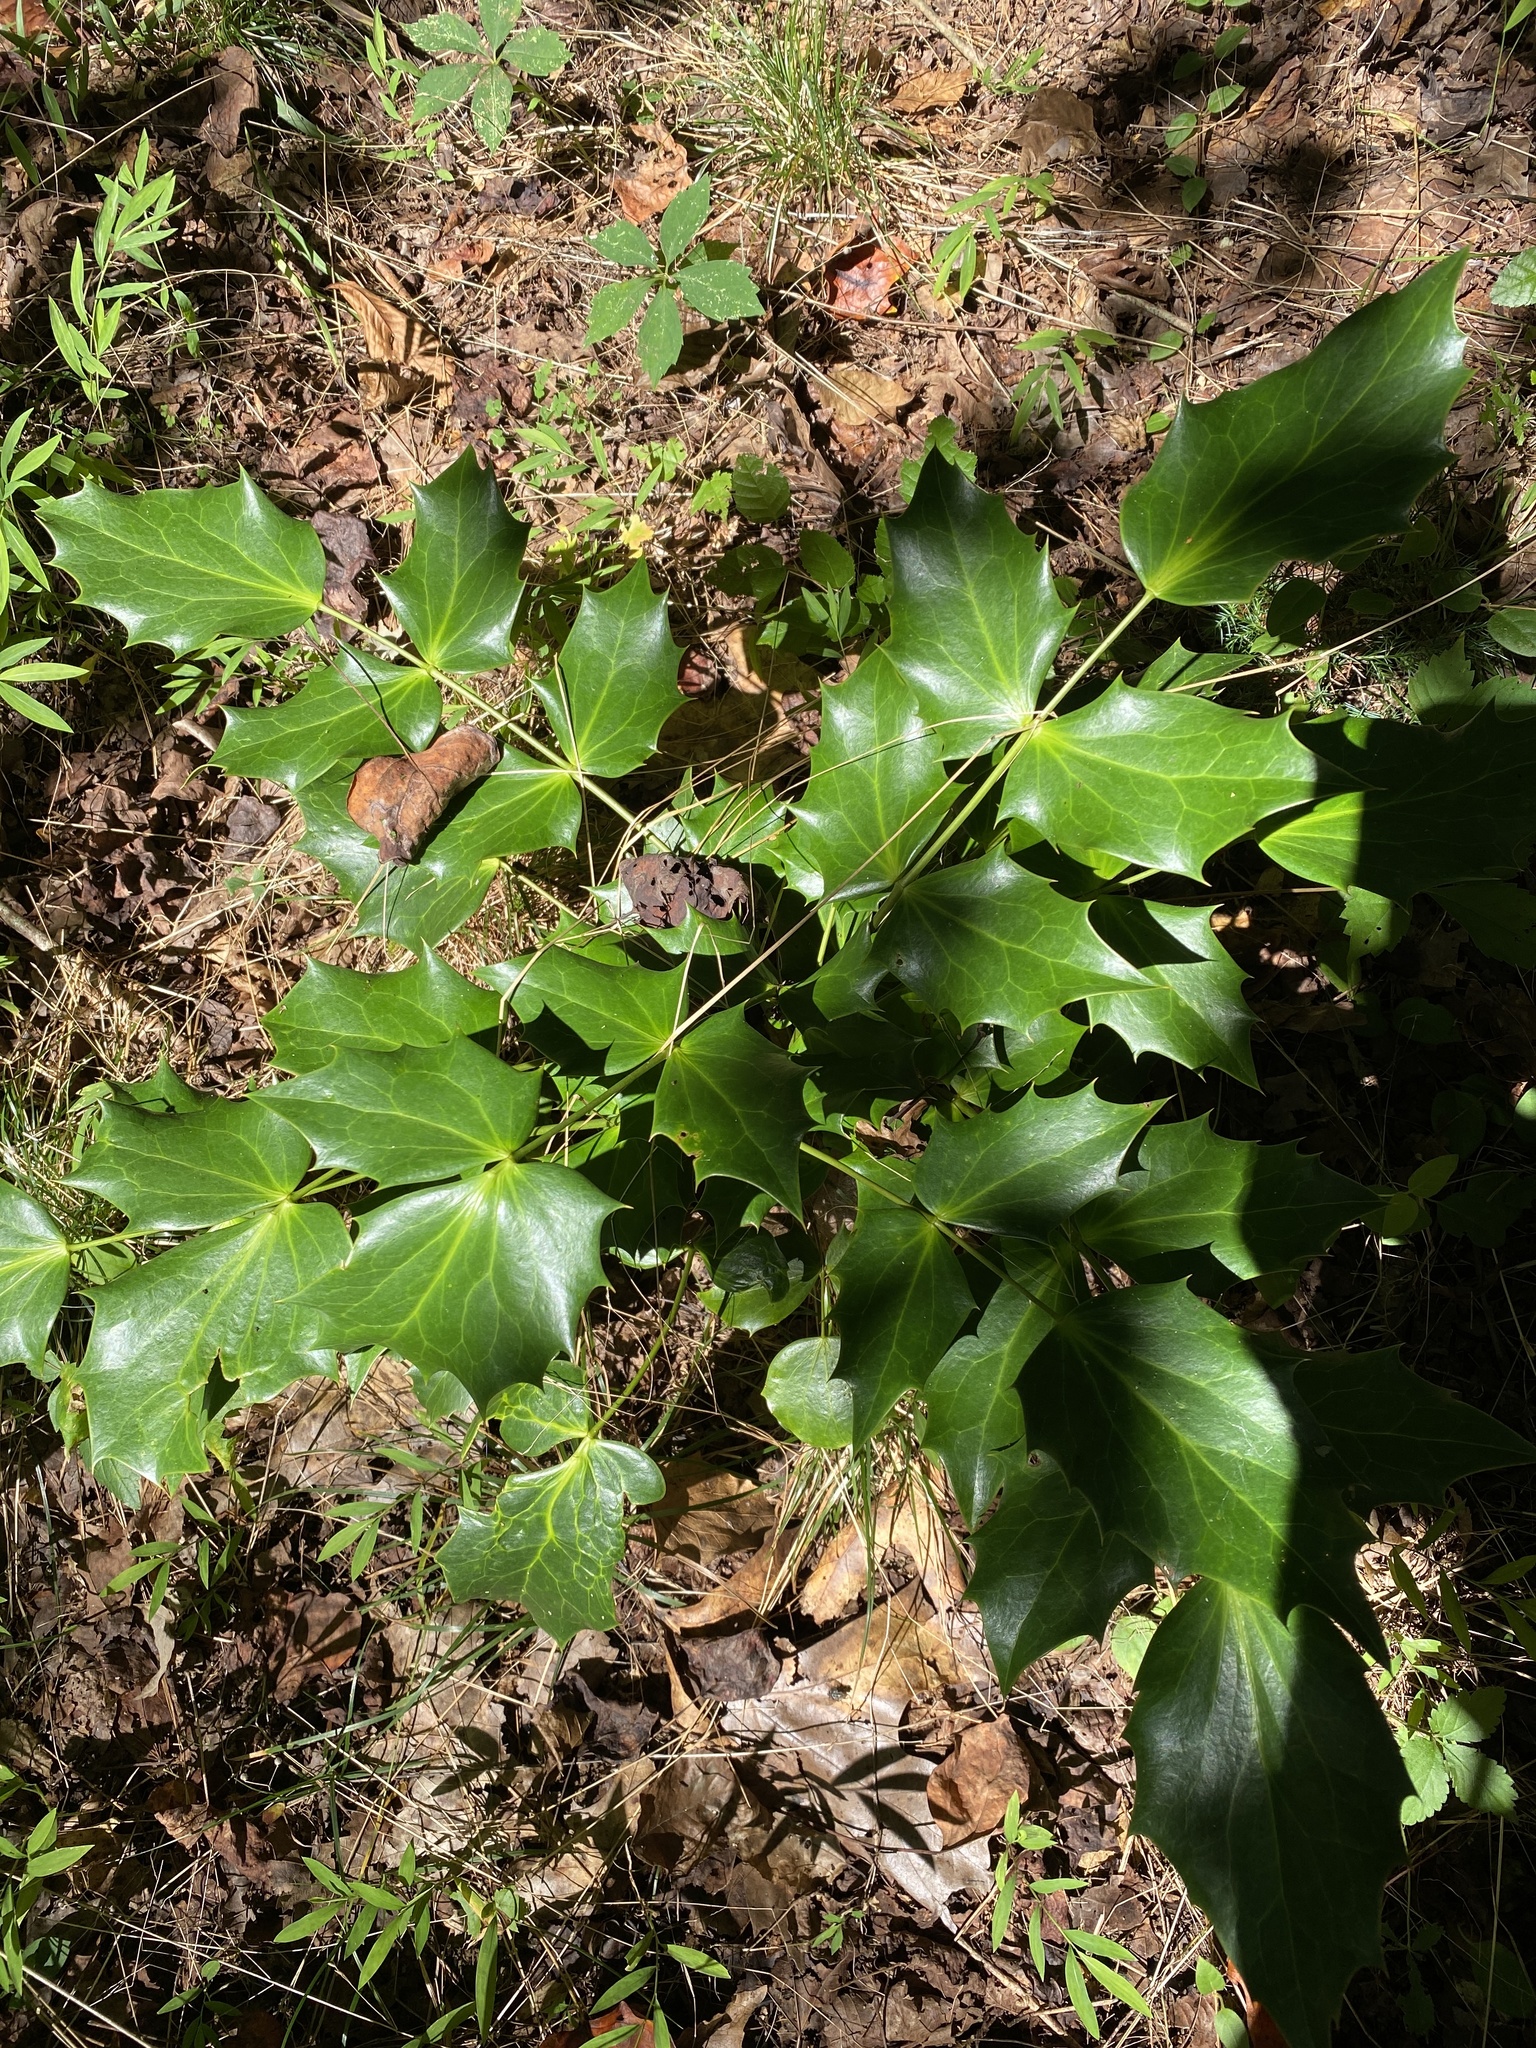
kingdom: Plantae
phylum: Tracheophyta
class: Magnoliopsida
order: Ranunculales
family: Berberidaceae
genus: Mahonia
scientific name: Mahonia bealei
